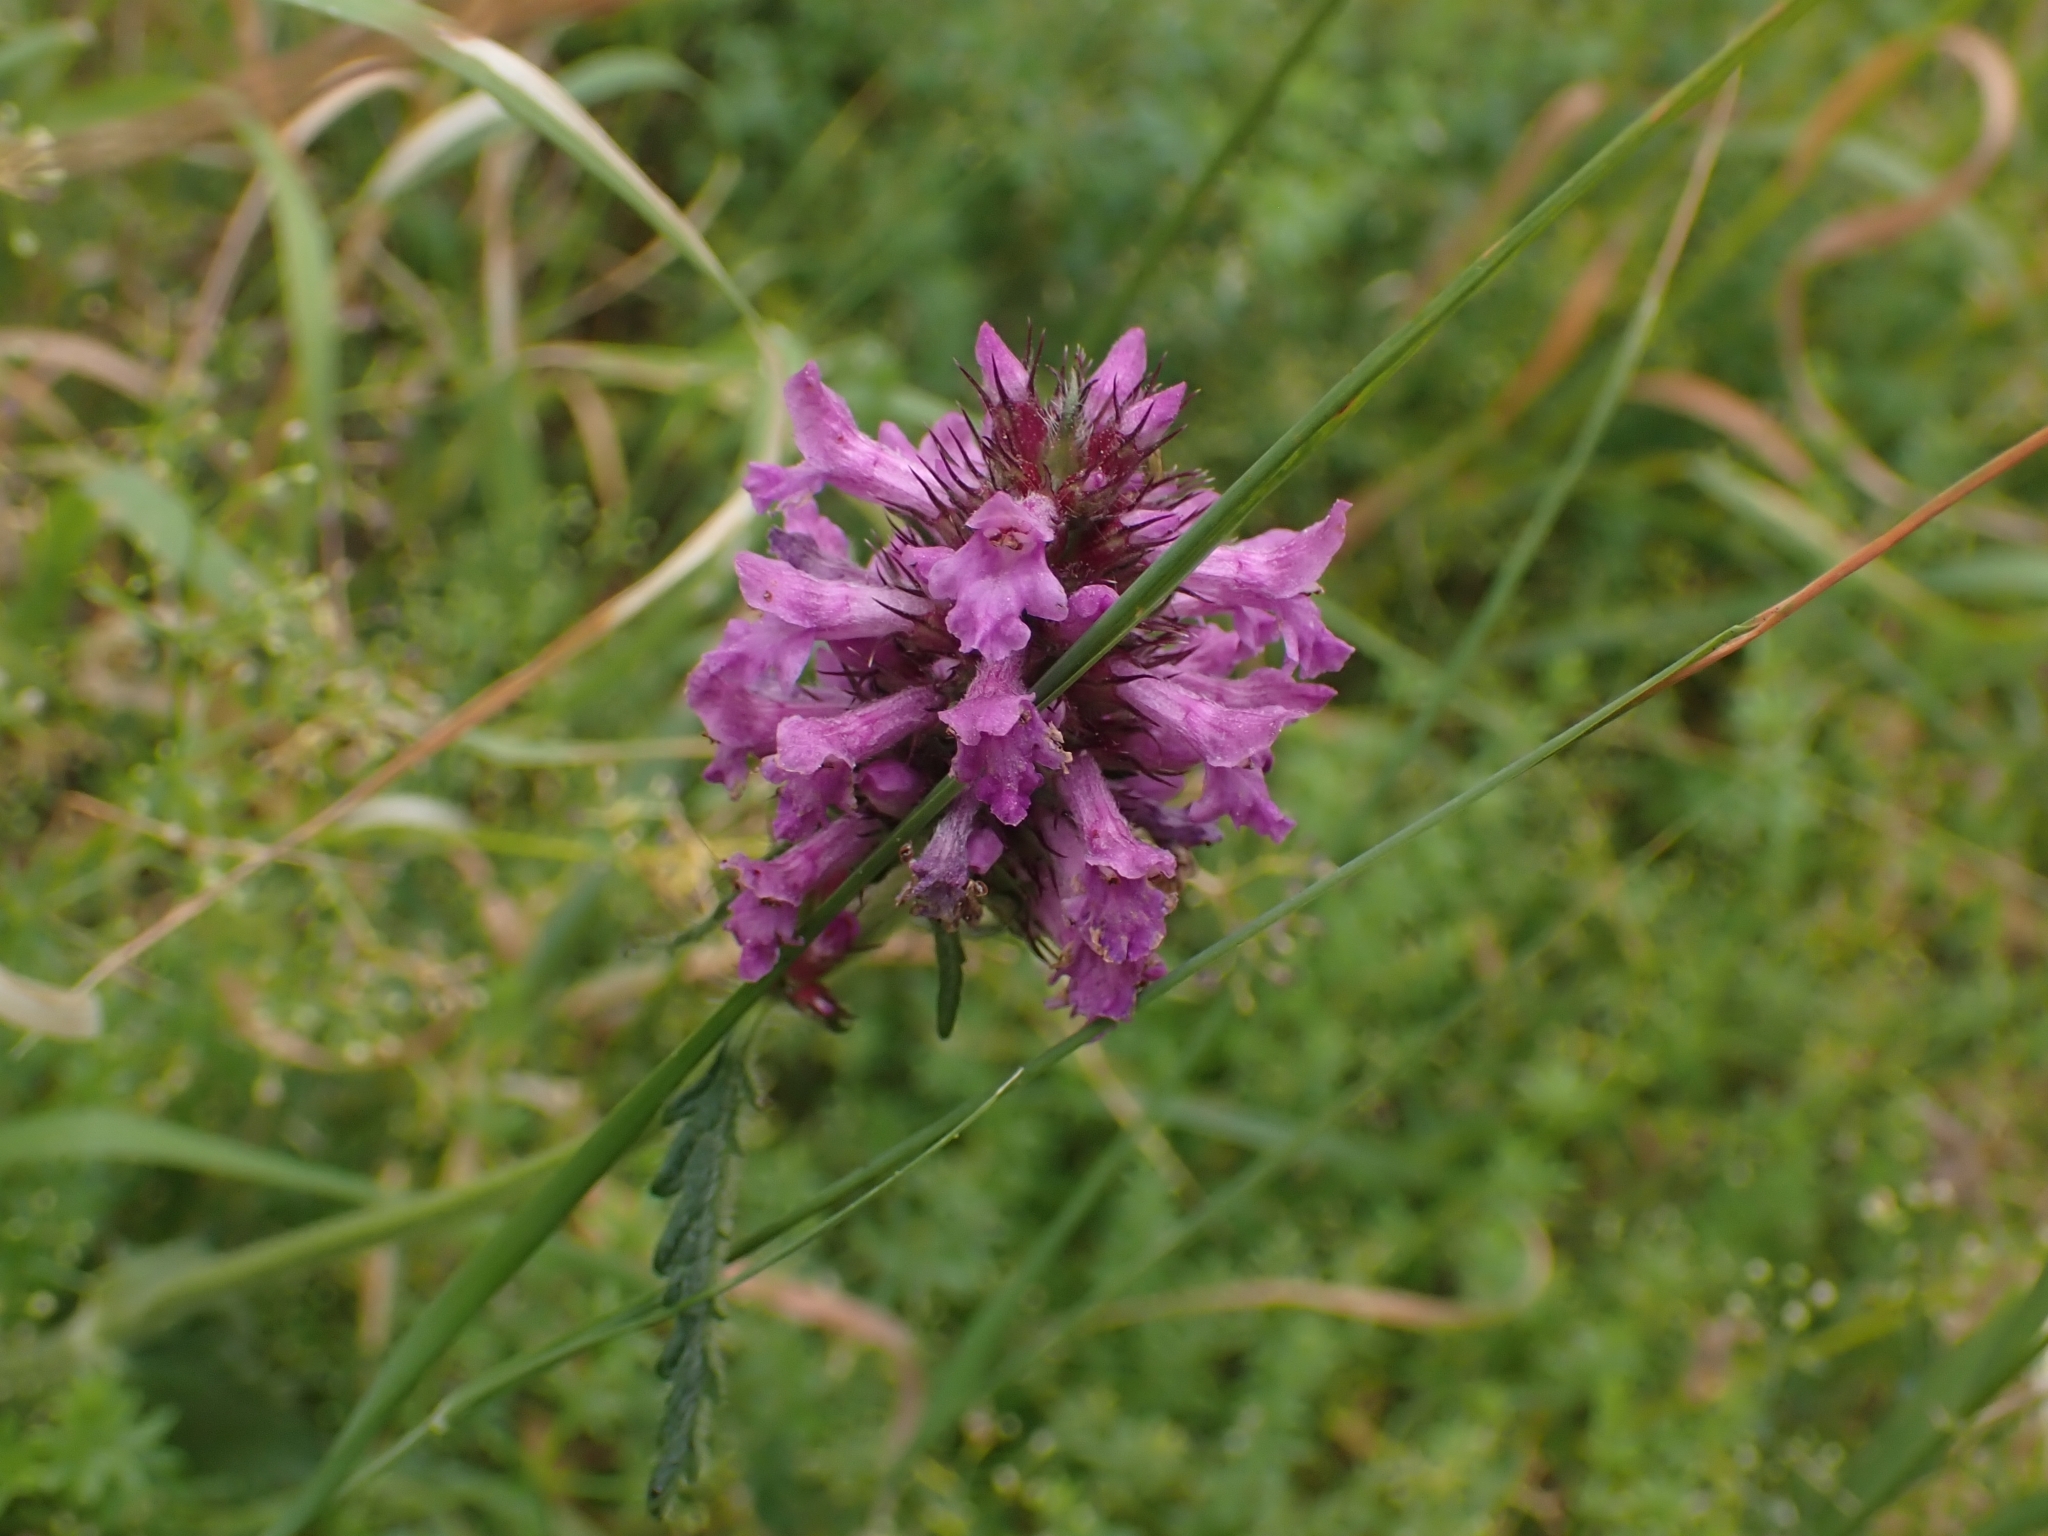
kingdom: Plantae
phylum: Tracheophyta
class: Magnoliopsida
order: Lamiales
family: Lamiaceae
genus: Betonica
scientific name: Betonica officinalis
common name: Bishop's-wort
